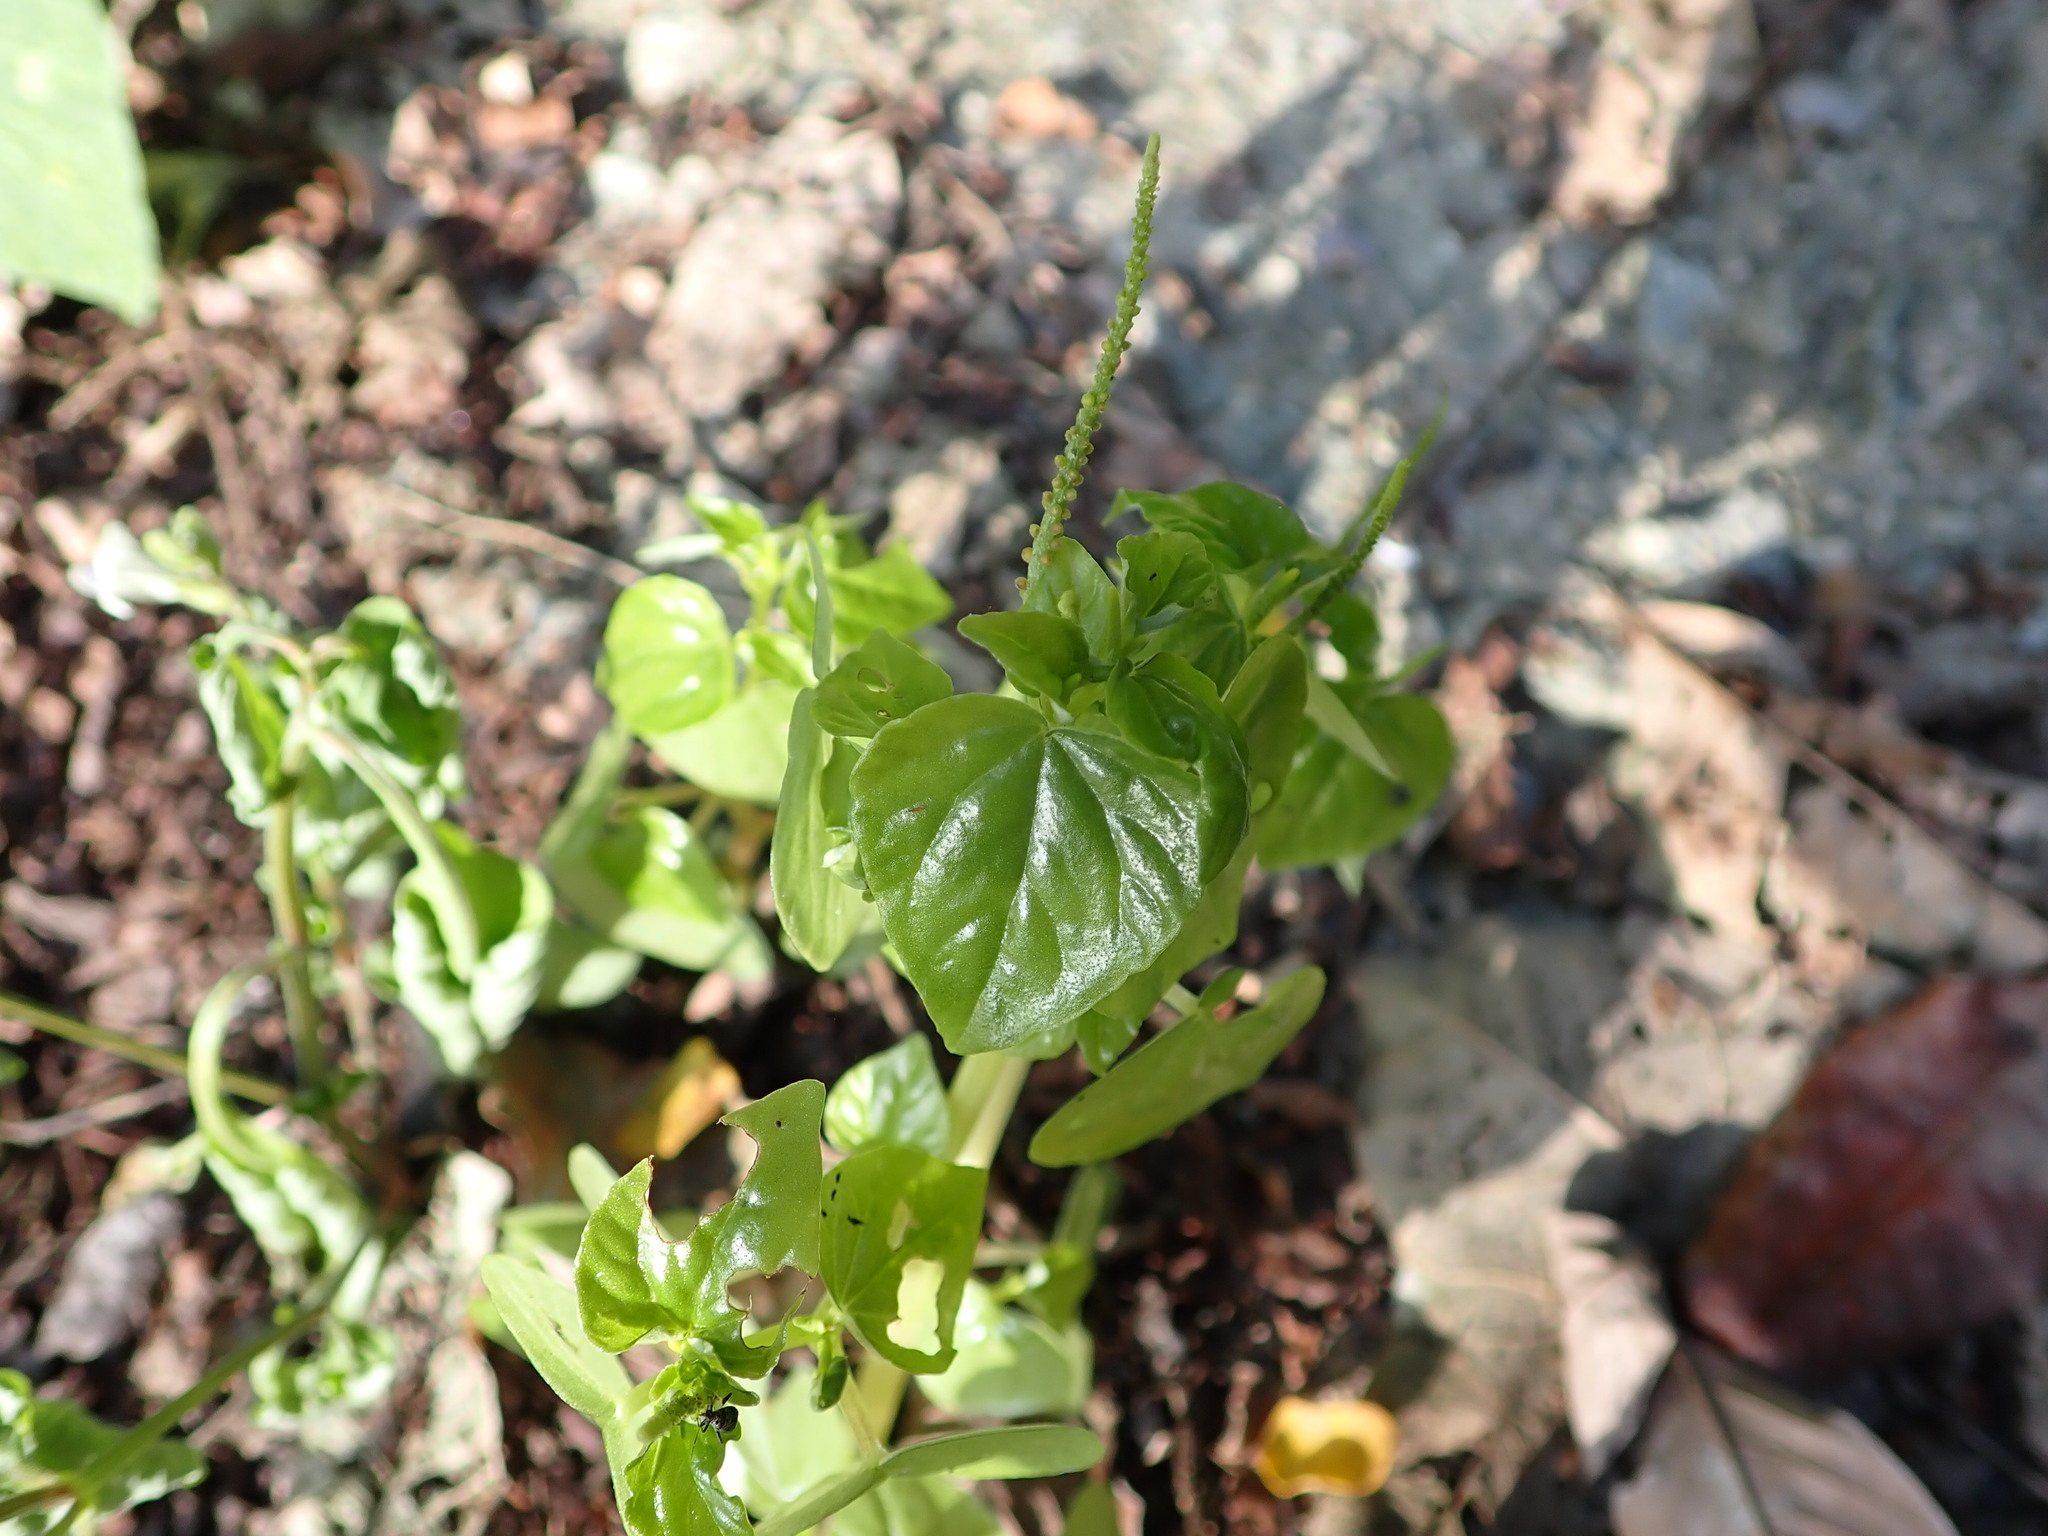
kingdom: Plantae
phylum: Tracheophyta
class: Magnoliopsida
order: Piperales
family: Piperaceae
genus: Peperomia
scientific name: Peperomia pellucida
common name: Man to man
